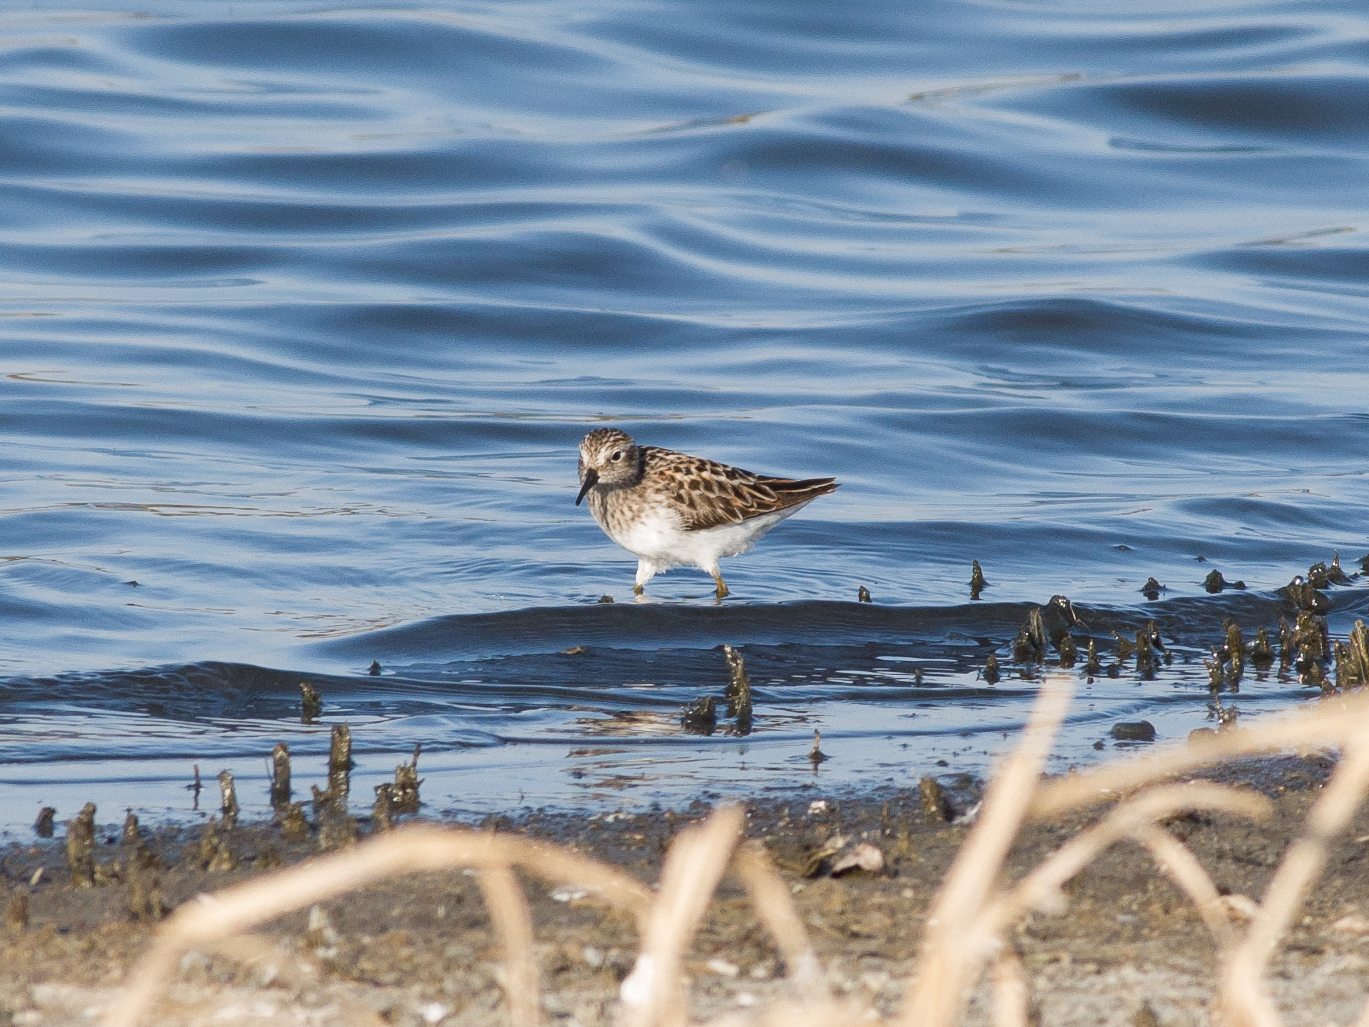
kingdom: Animalia
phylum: Chordata
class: Aves
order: Charadriiformes
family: Scolopacidae
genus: Calidris
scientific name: Calidris minutilla
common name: Least sandpiper
